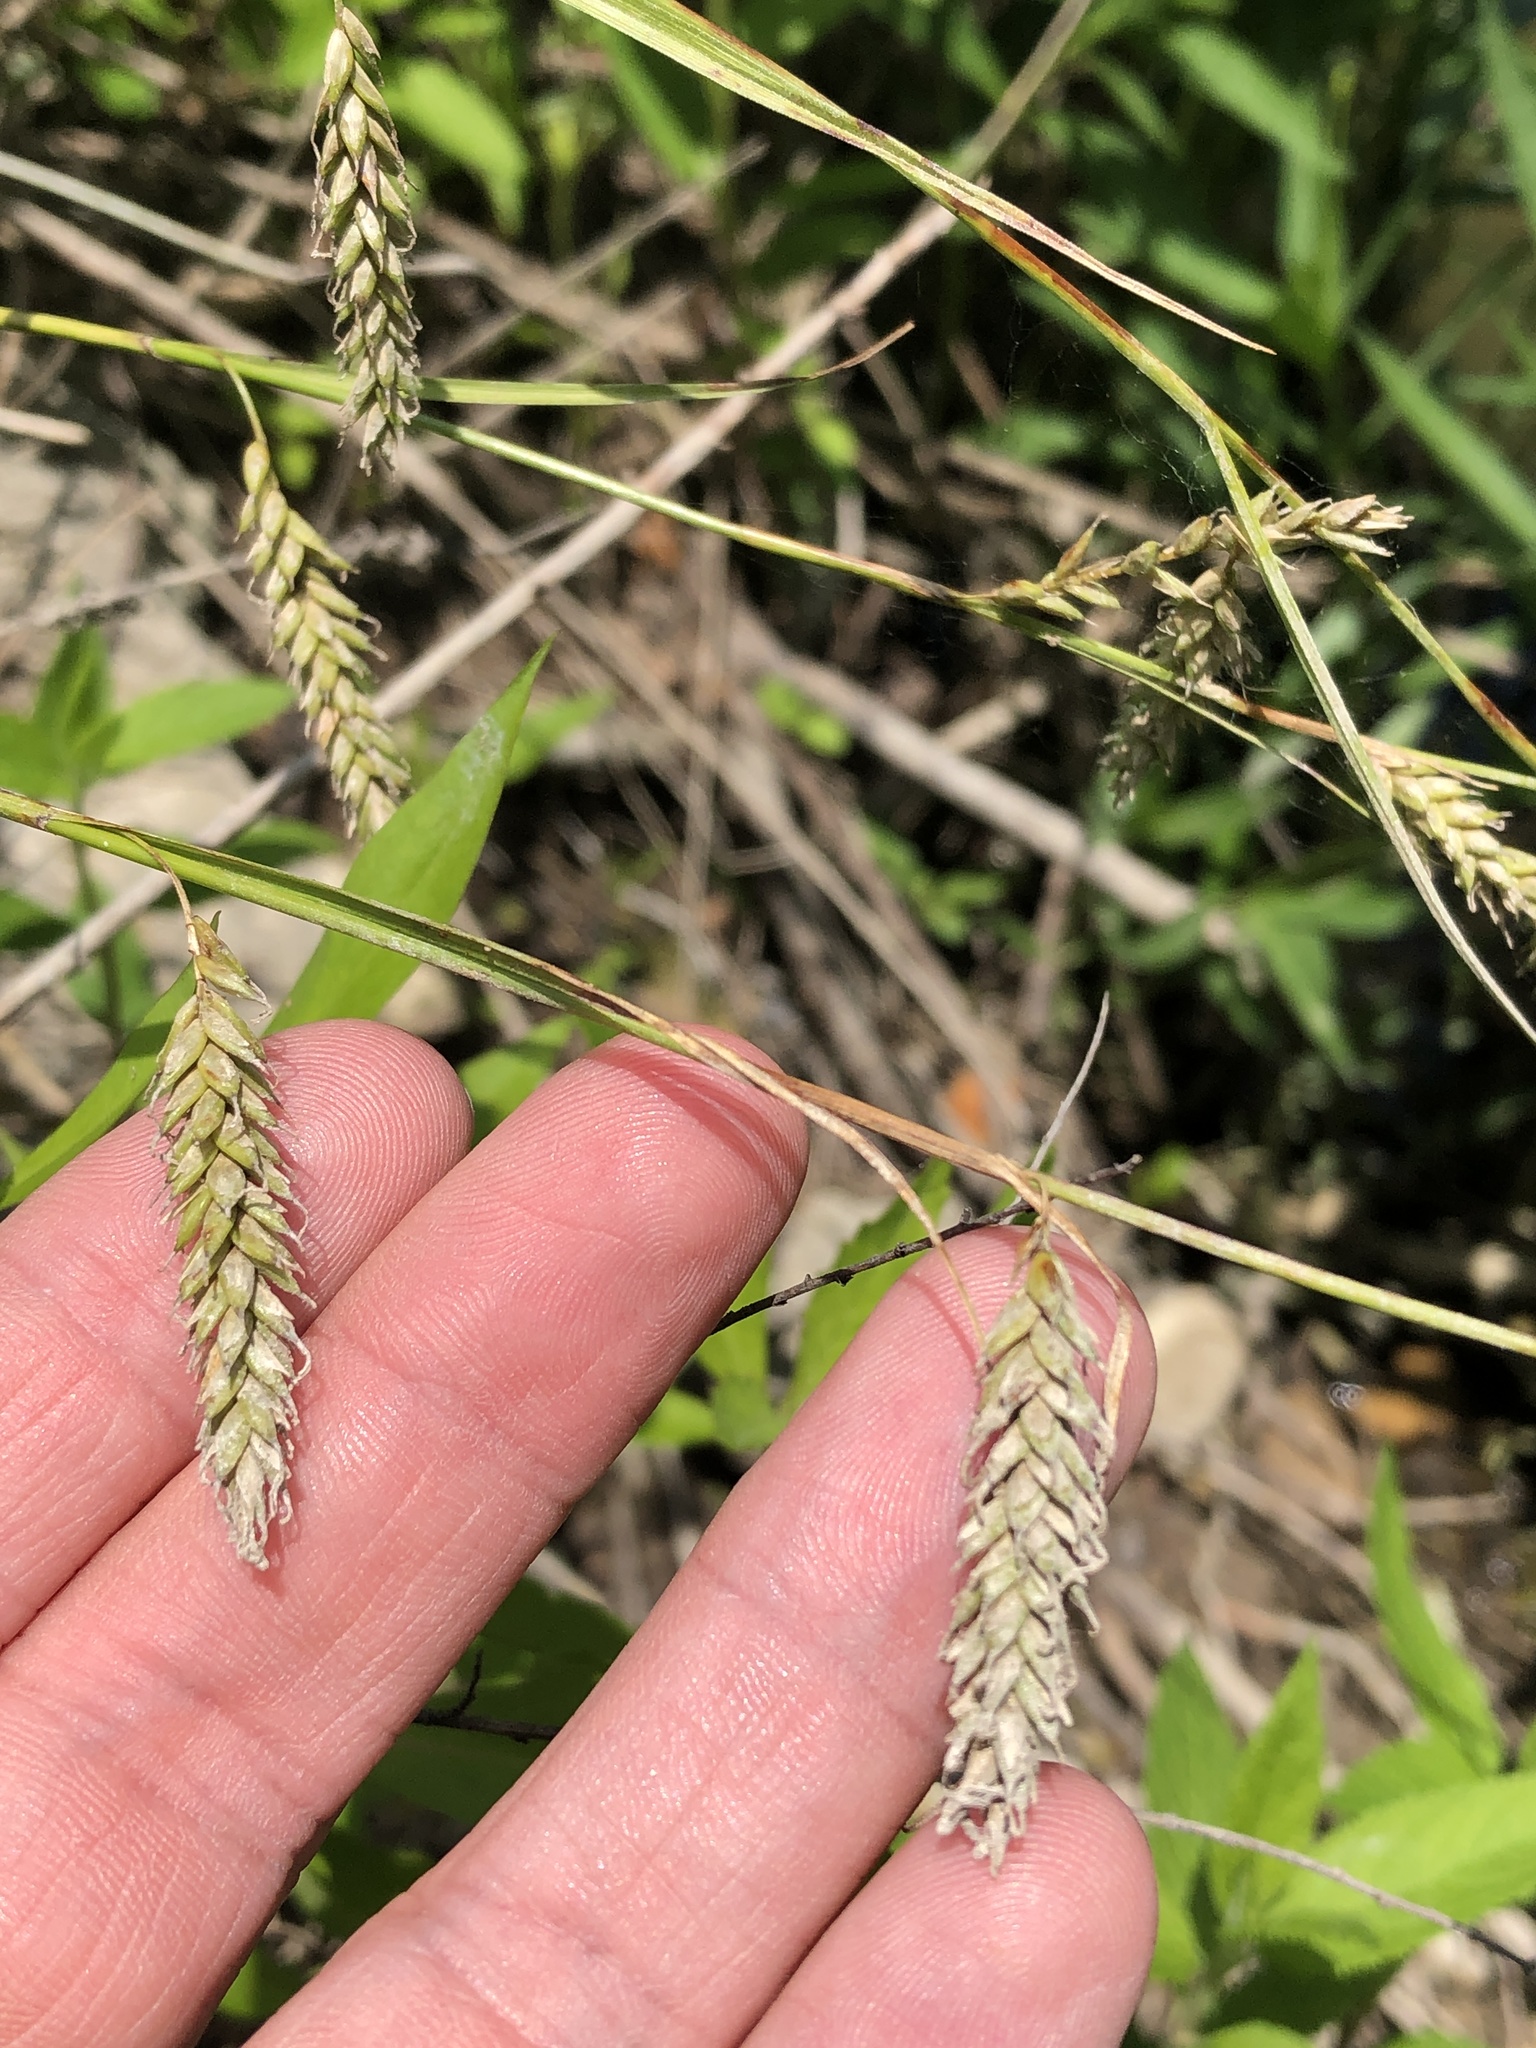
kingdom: Plantae
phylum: Tracheophyta
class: Liliopsida
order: Poales
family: Cyperaceae
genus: Carex
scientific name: Carex cherokeensis
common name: Cherokee sedge
